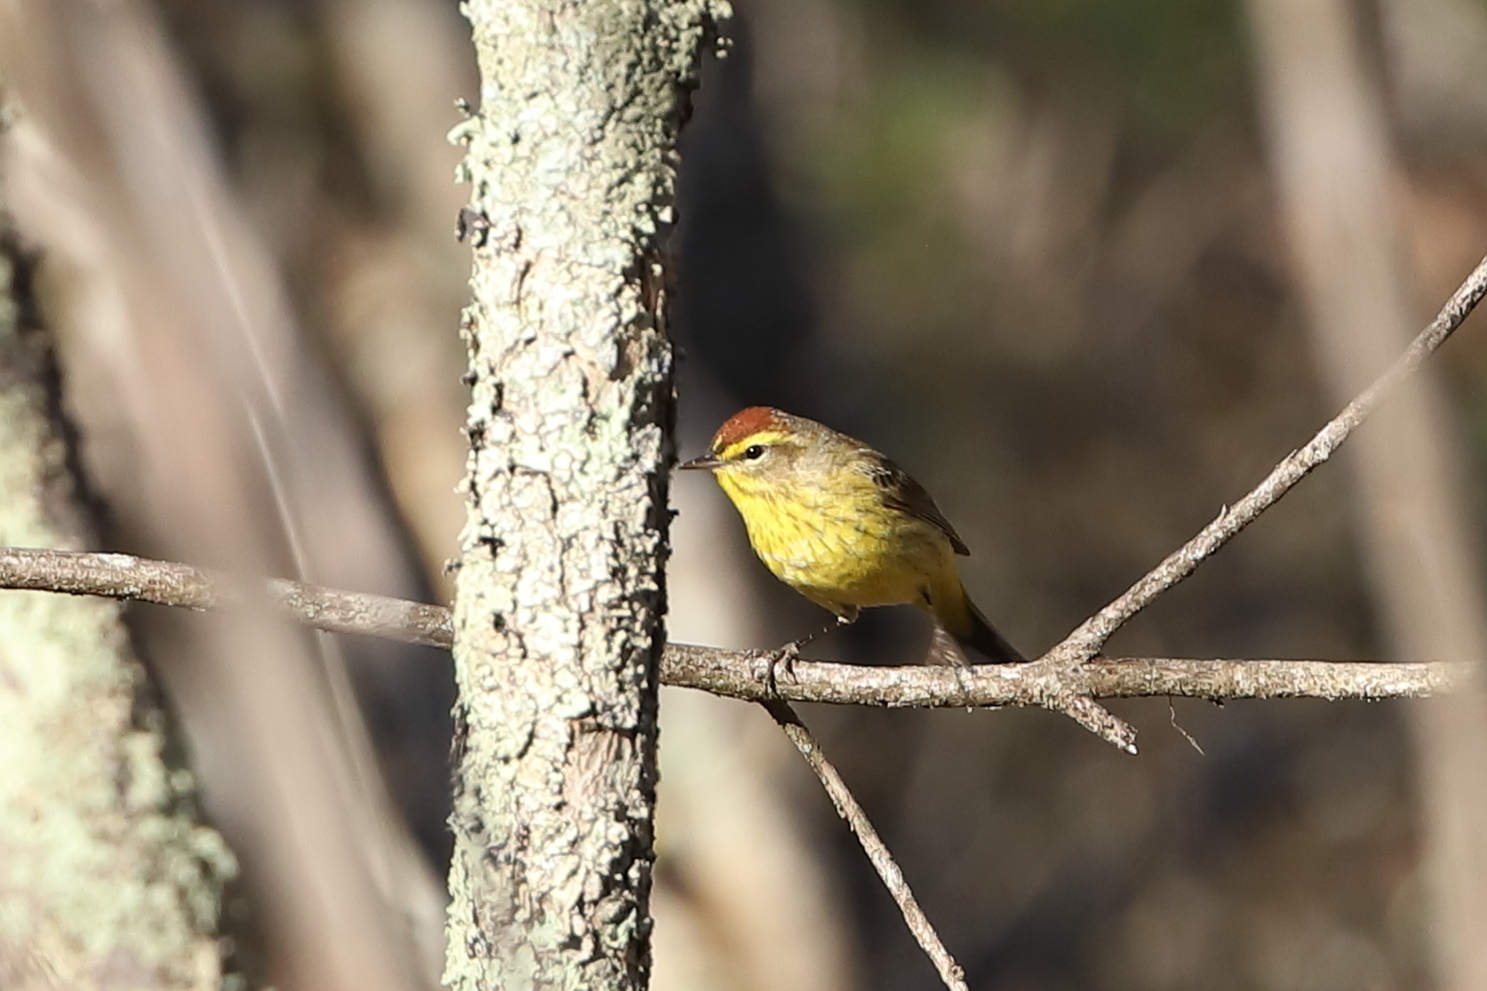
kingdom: Animalia
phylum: Chordata
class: Aves
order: Passeriformes
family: Parulidae
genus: Setophaga
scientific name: Setophaga palmarum
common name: Palm warbler
